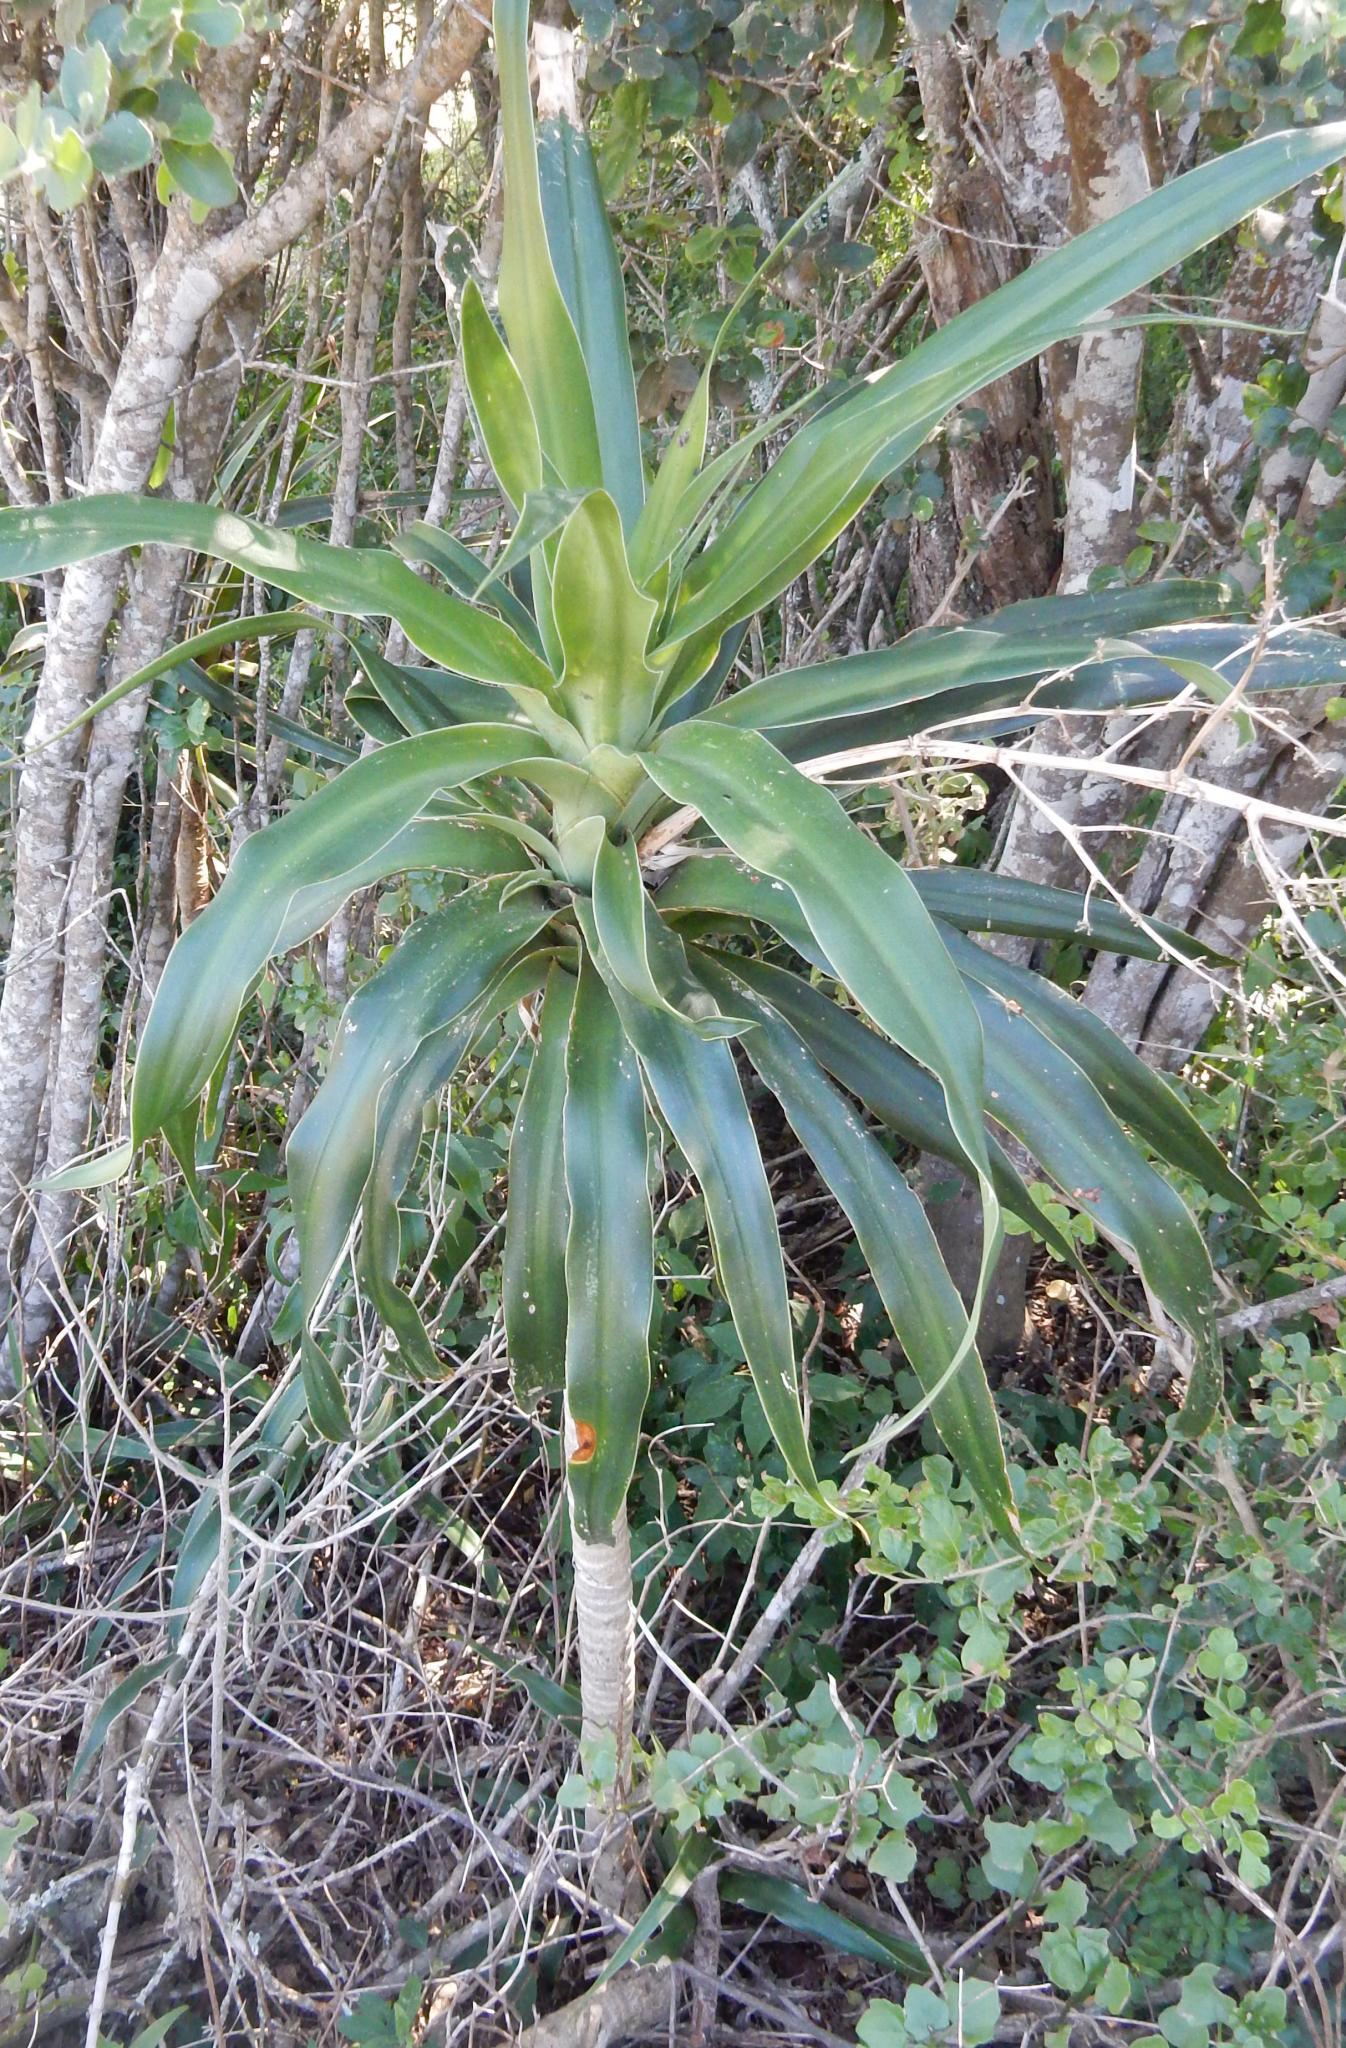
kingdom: Plantae
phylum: Tracheophyta
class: Liliopsida
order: Asparagales
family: Asparagaceae
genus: Dracaena
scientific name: Dracaena aletriformis
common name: Large-leaved dragon tree
